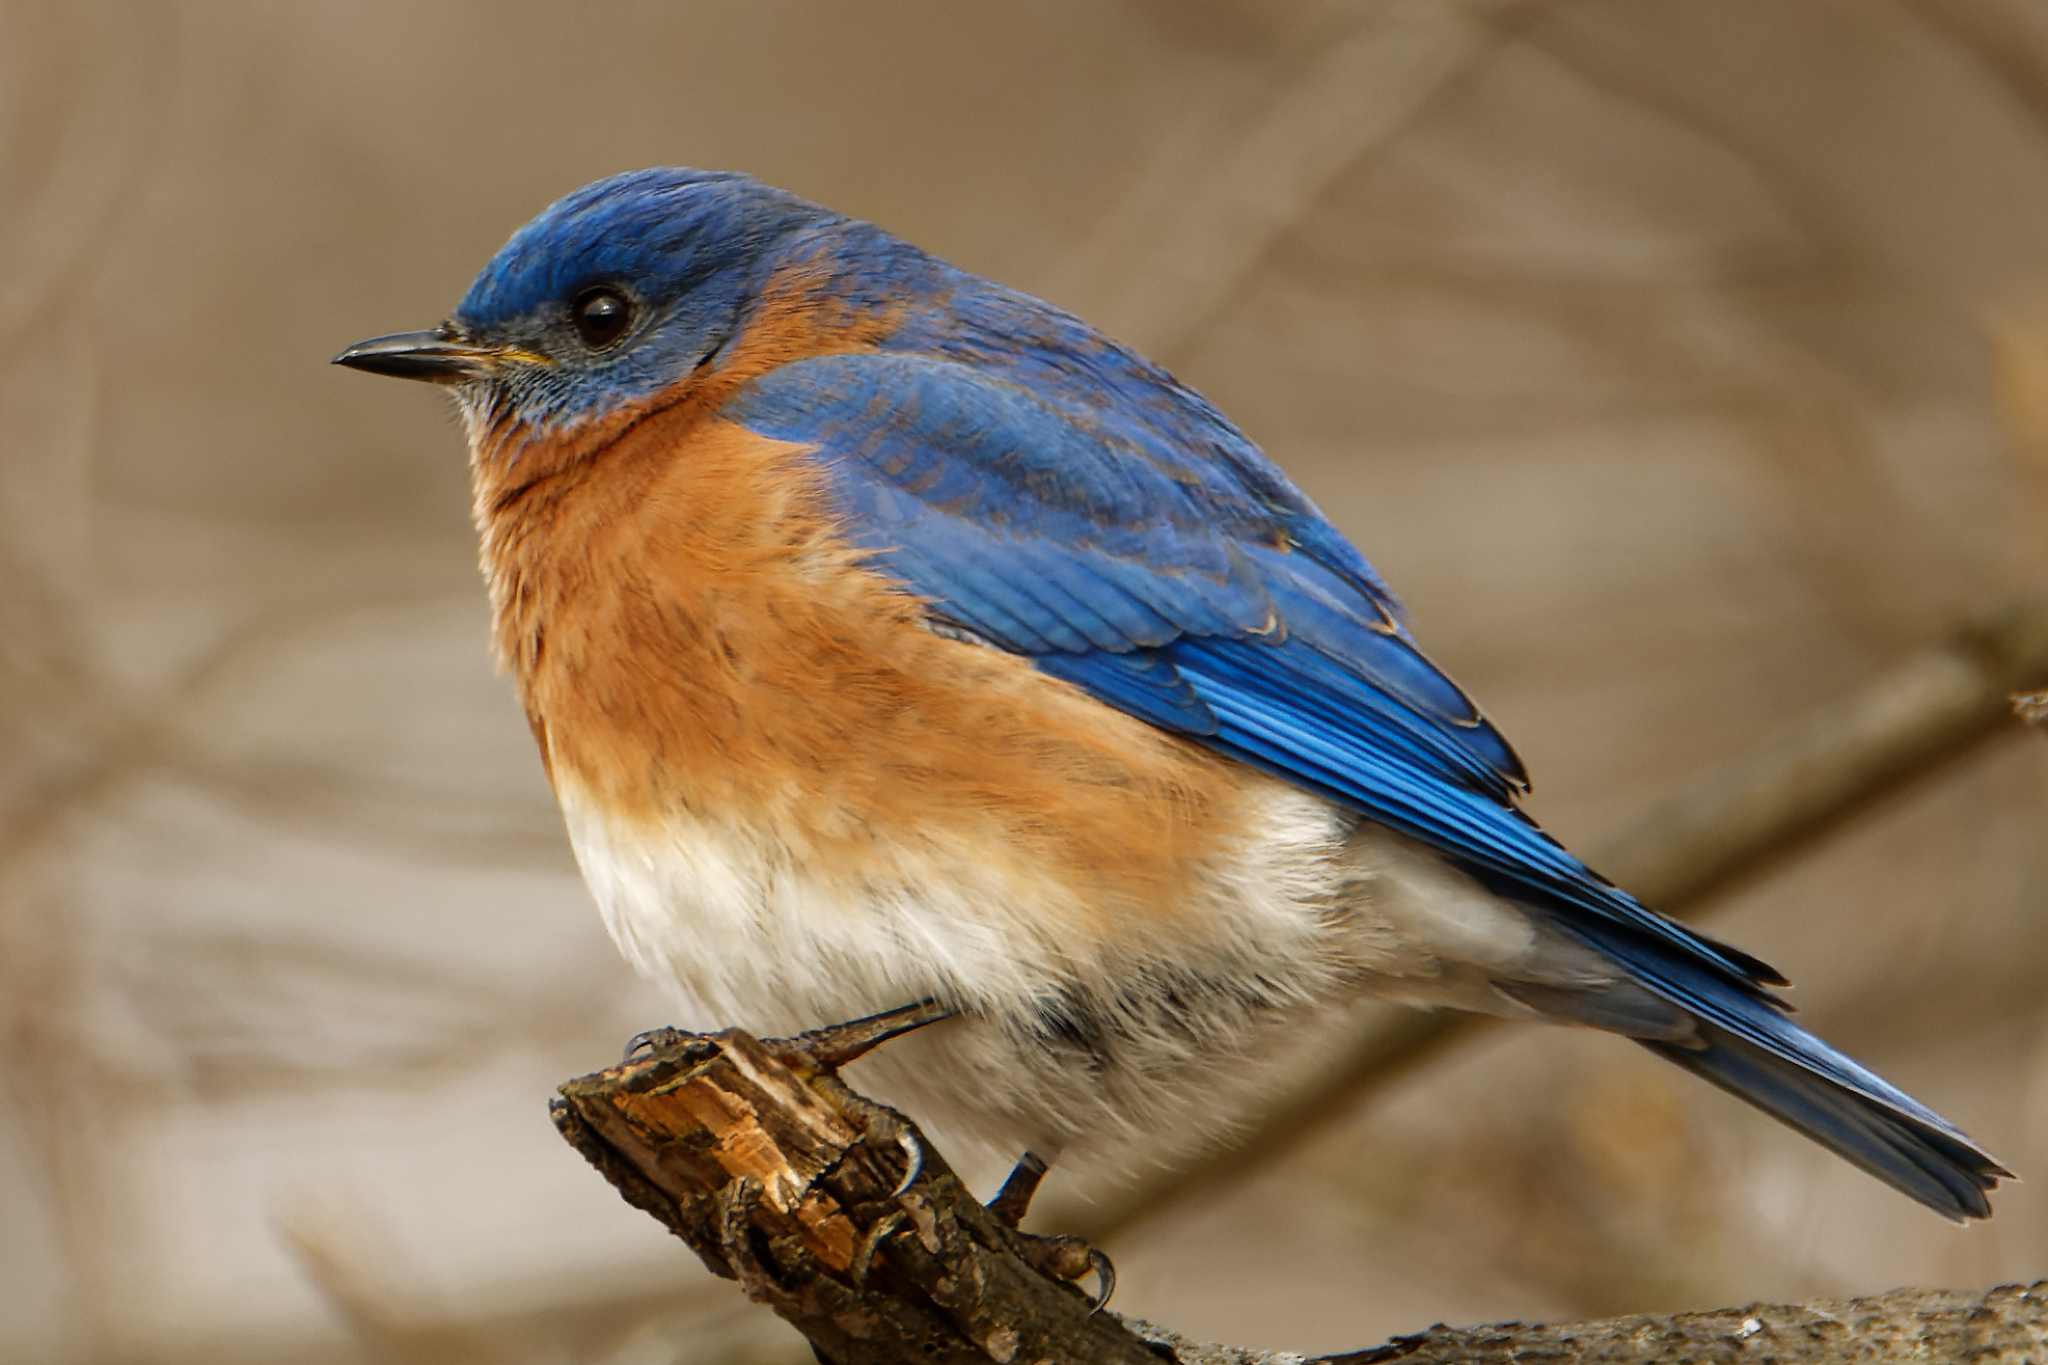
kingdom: Animalia
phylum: Chordata
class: Aves
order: Passeriformes
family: Turdidae
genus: Sialia
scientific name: Sialia sialis
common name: Eastern bluebird
